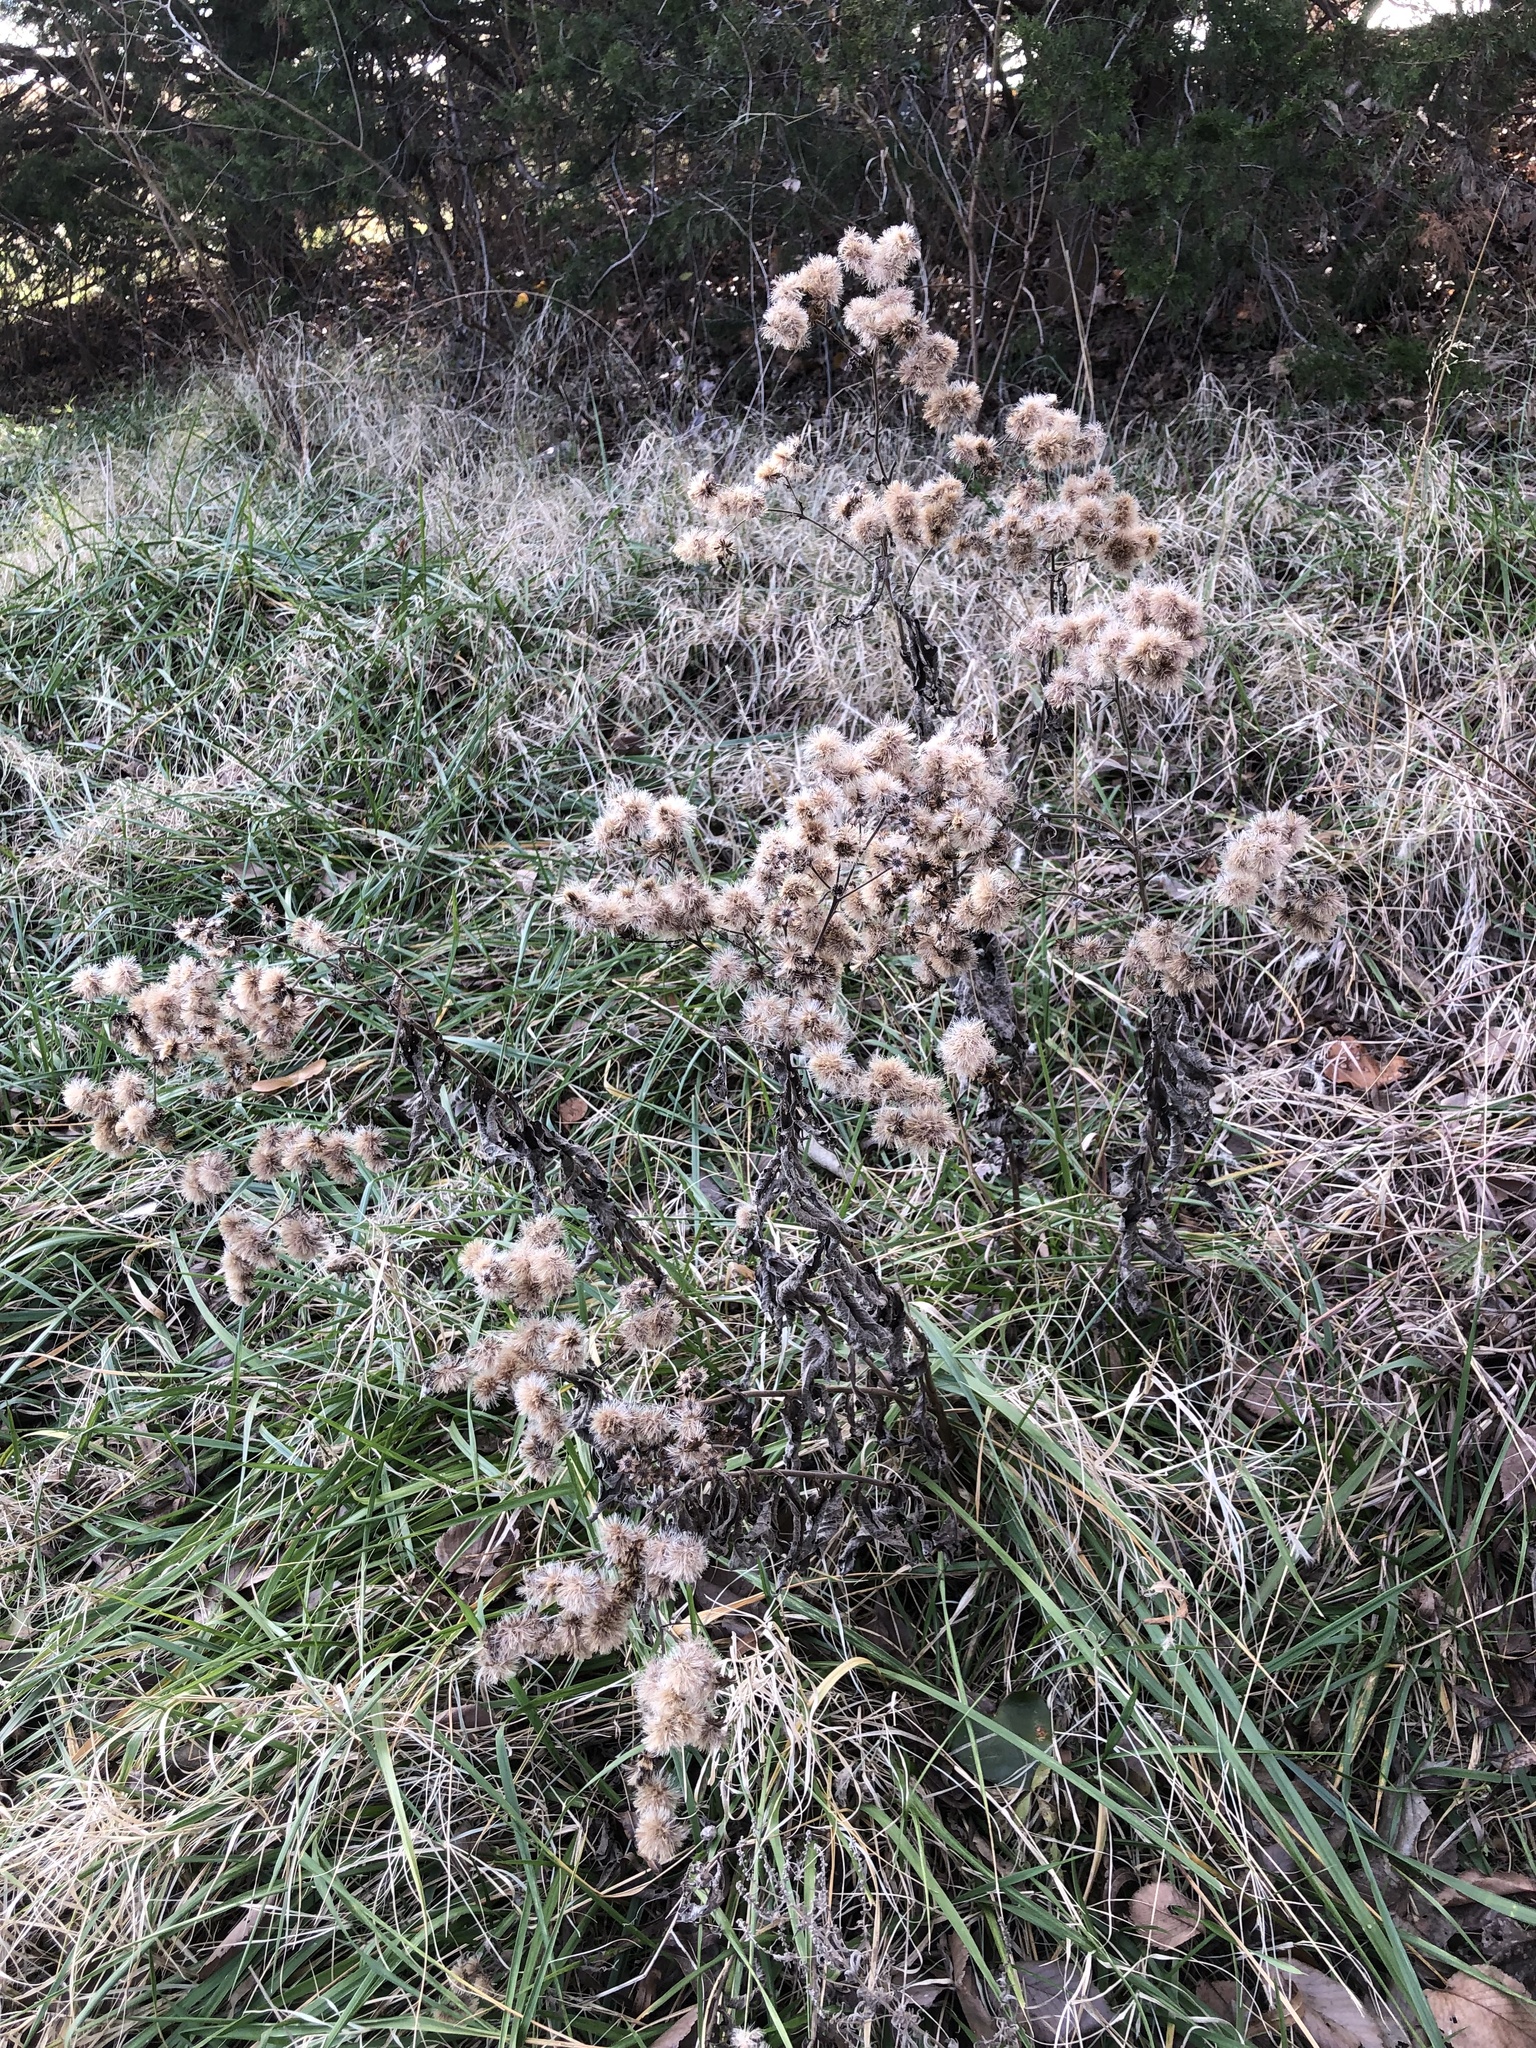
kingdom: Plantae
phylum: Tracheophyta
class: Magnoliopsida
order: Asterales
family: Asteraceae
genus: Vernonia
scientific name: Vernonia baldwinii
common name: Western ironweed
